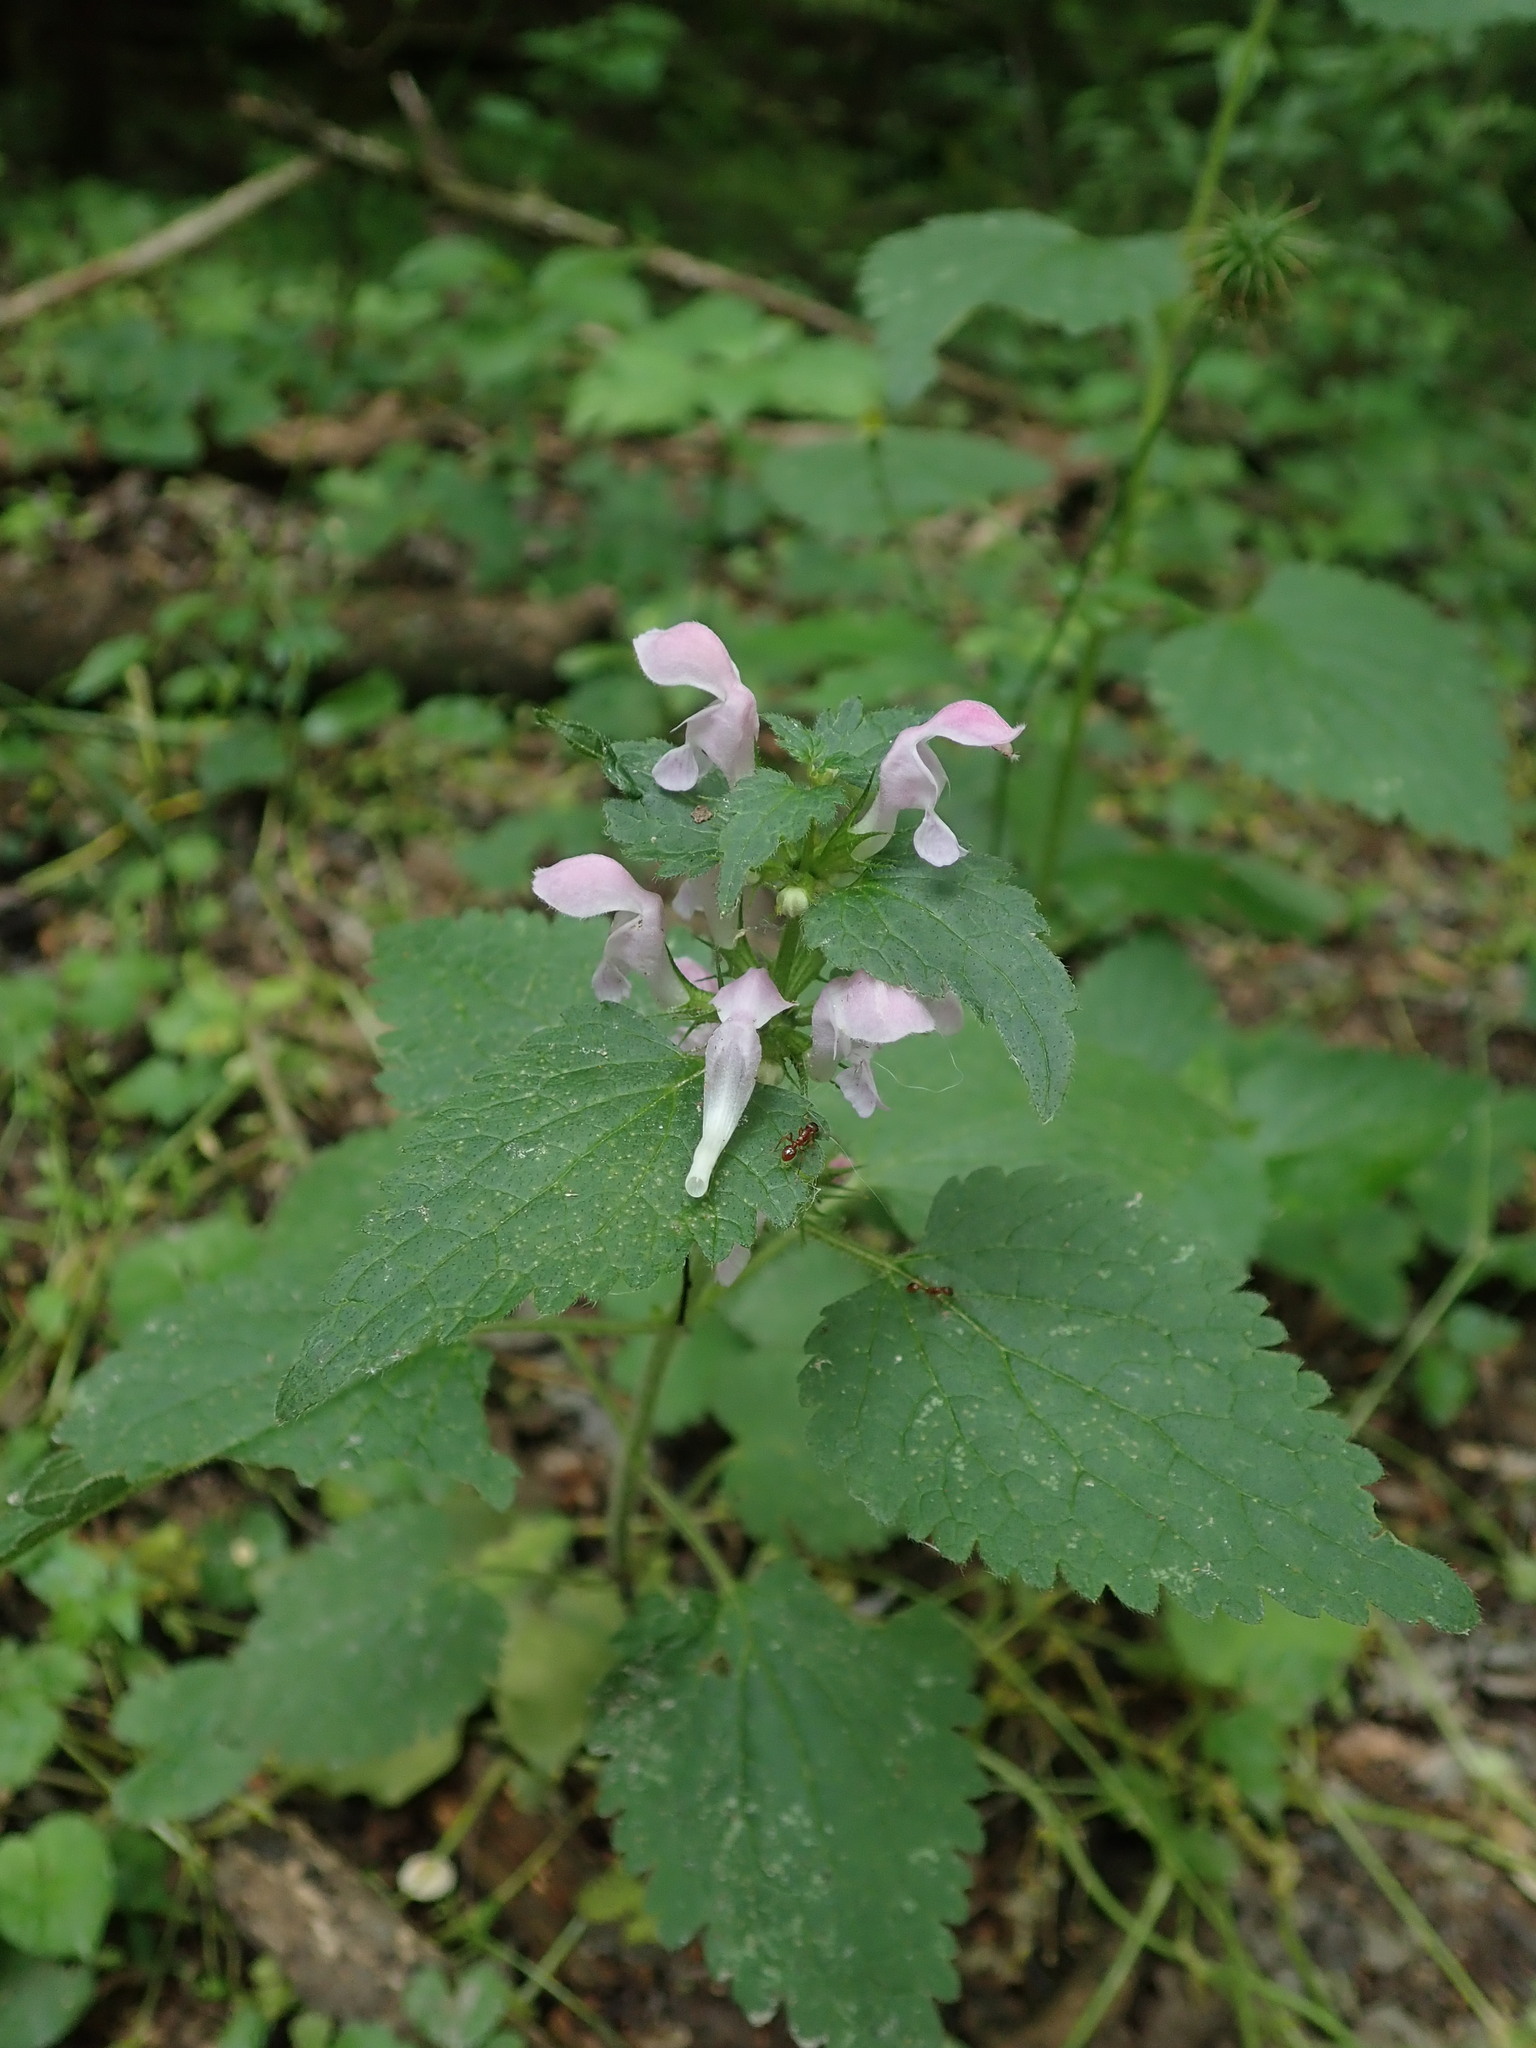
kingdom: Plantae
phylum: Tracheophyta
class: Magnoliopsida
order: Lamiales
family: Lamiaceae
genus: Lamium
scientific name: Lamium maculatum
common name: Spotted dead-nettle
